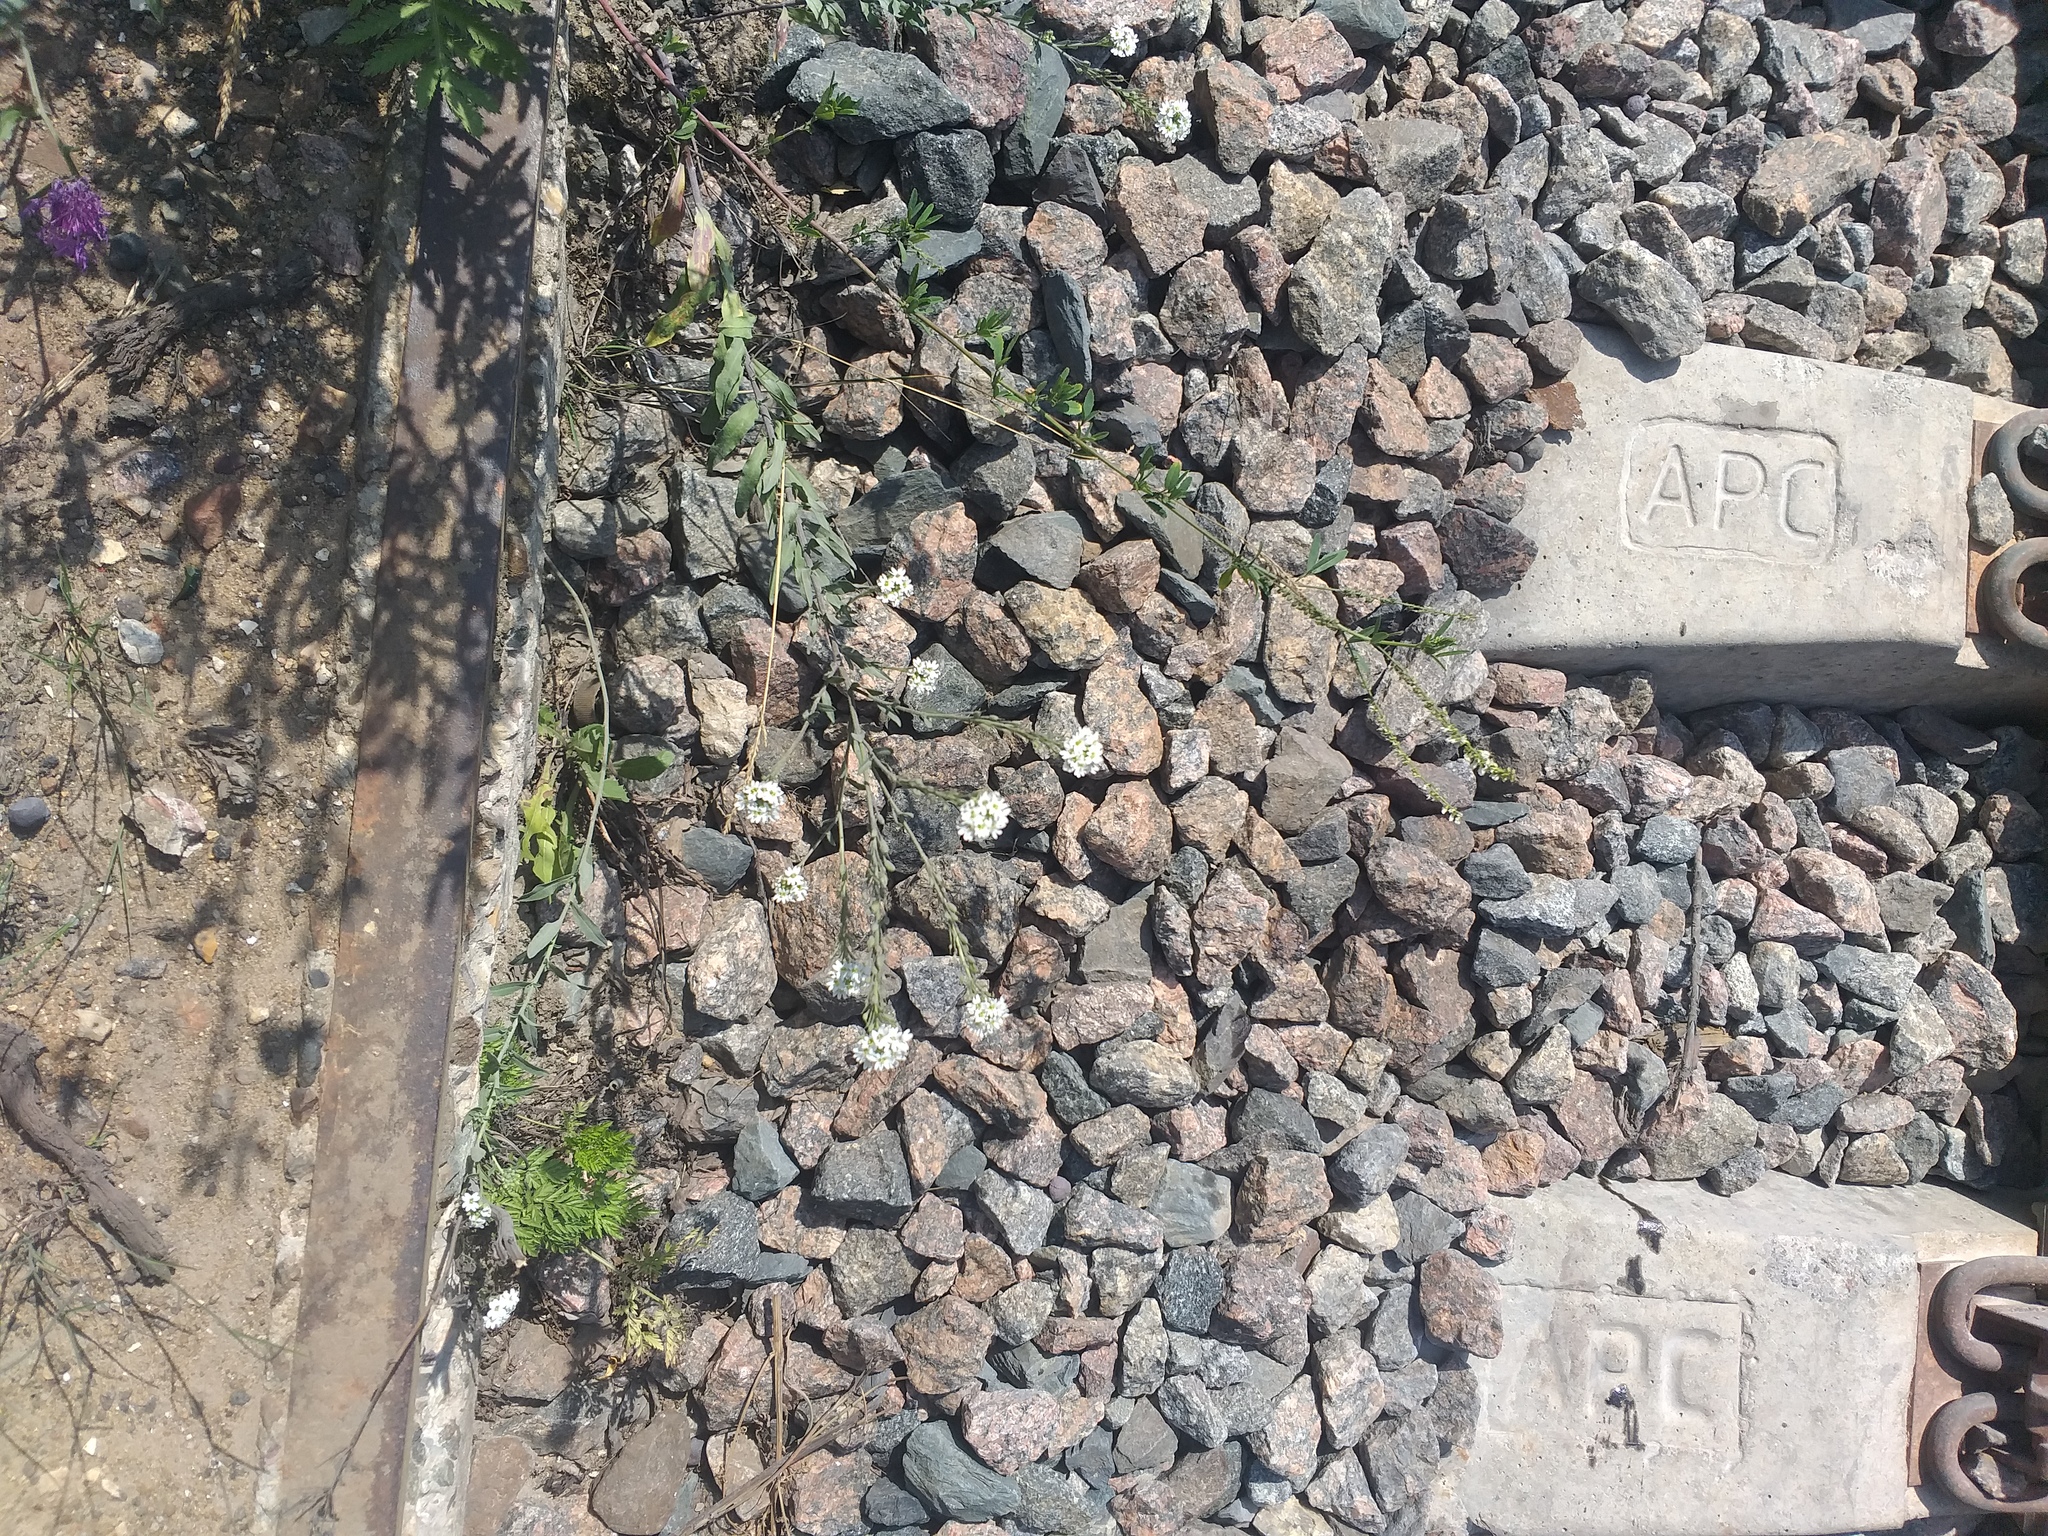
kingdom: Plantae
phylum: Tracheophyta
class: Magnoliopsida
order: Brassicales
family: Brassicaceae
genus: Berteroa
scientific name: Berteroa incana
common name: Hoary alison
